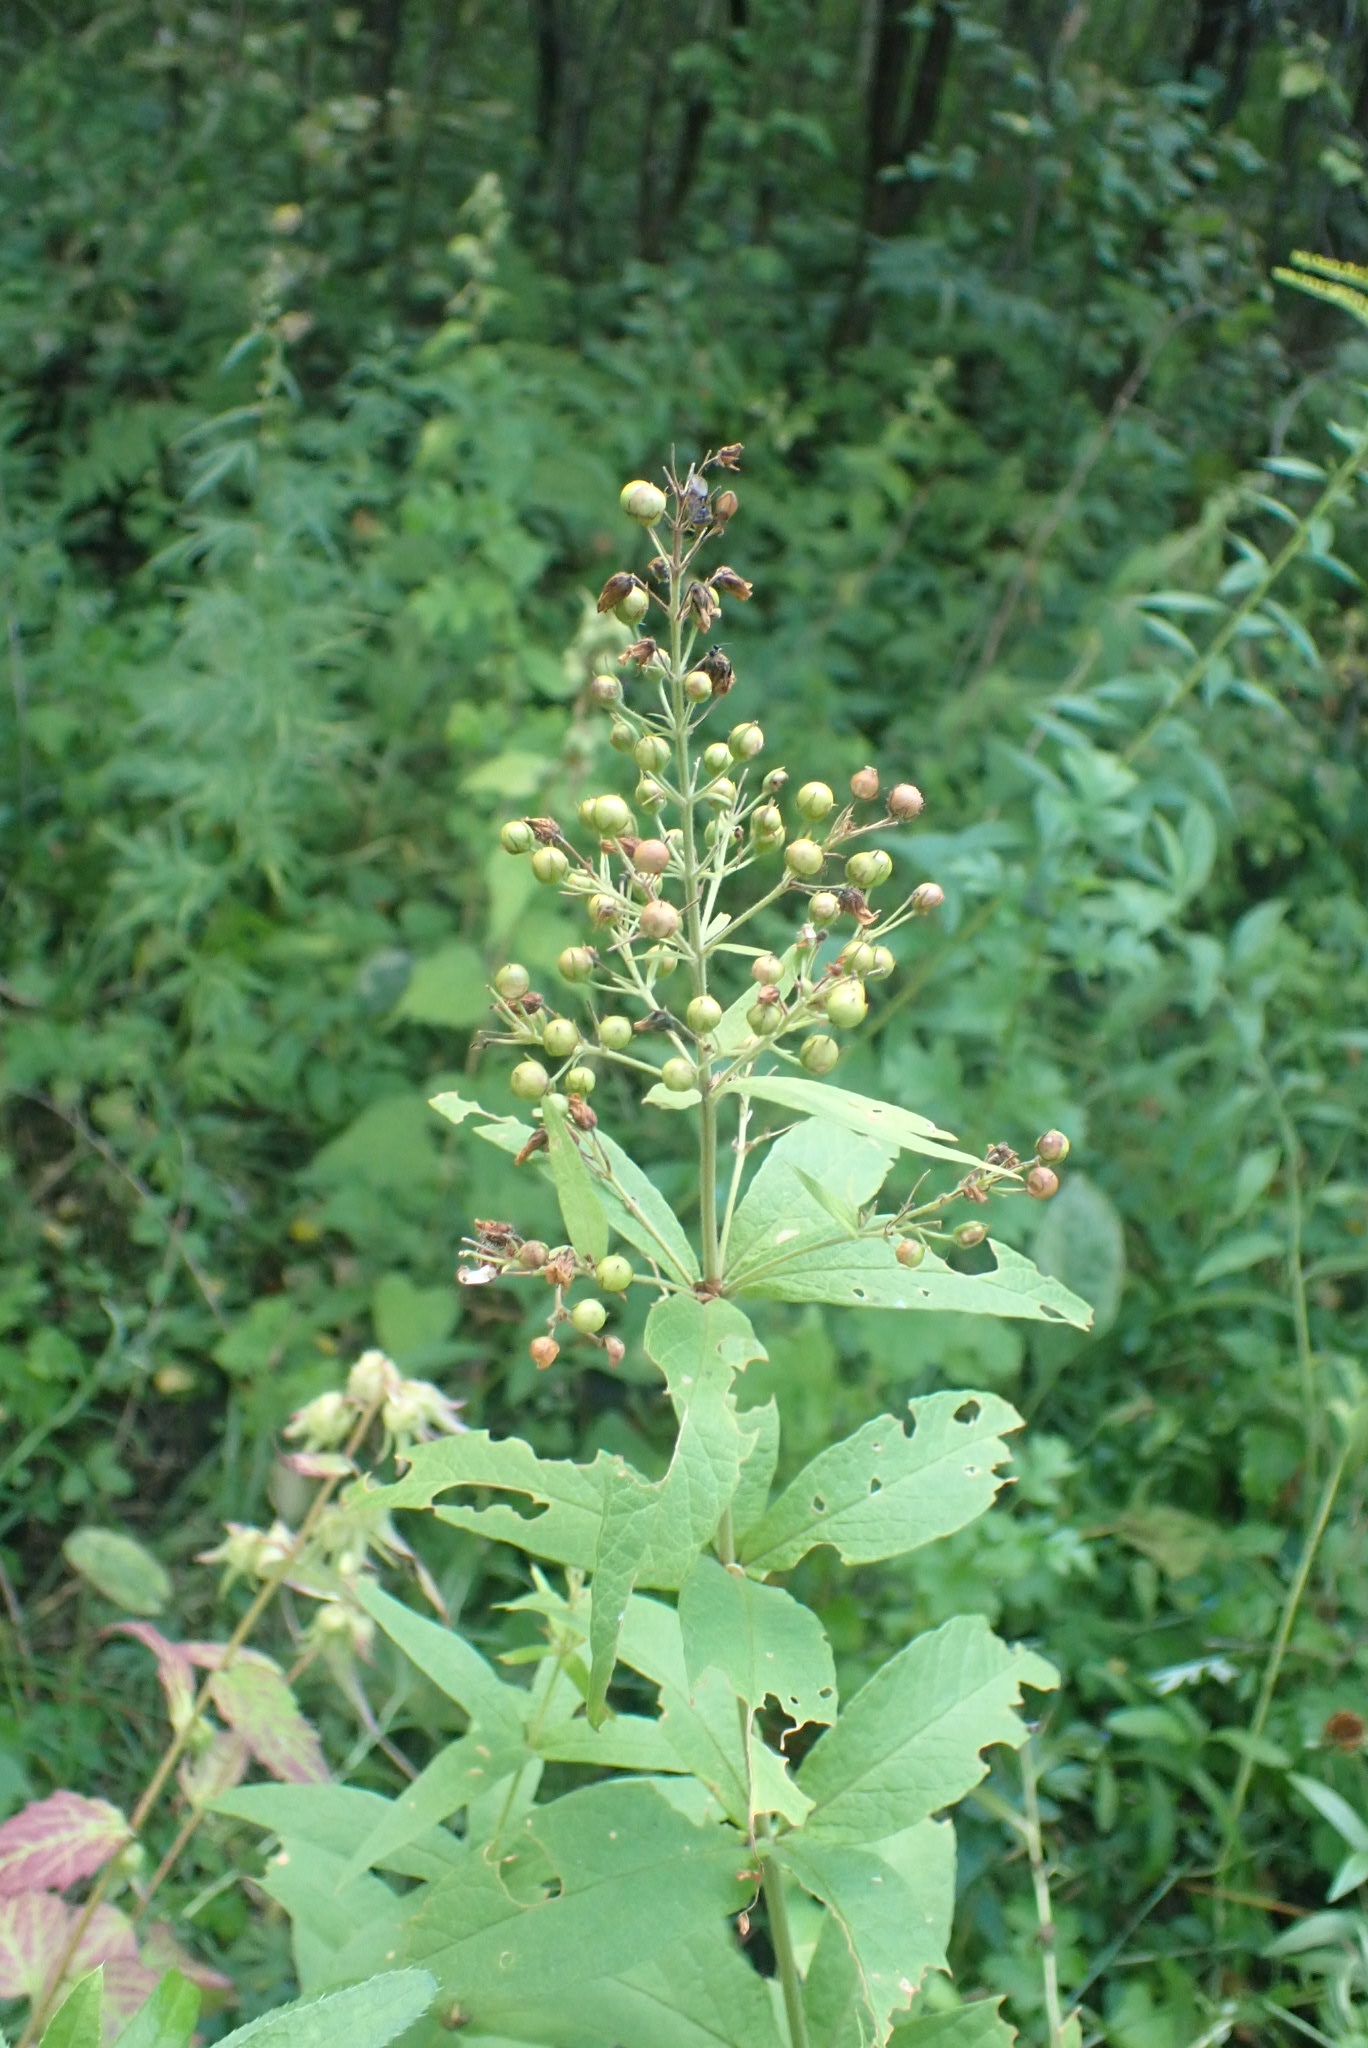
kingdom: Plantae
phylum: Tracheophyta
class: Magnoliopsida
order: Ericales
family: Primulaceae
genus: Lysimachia
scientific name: Lysimachia vulgaris
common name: Yellow loosestrife
